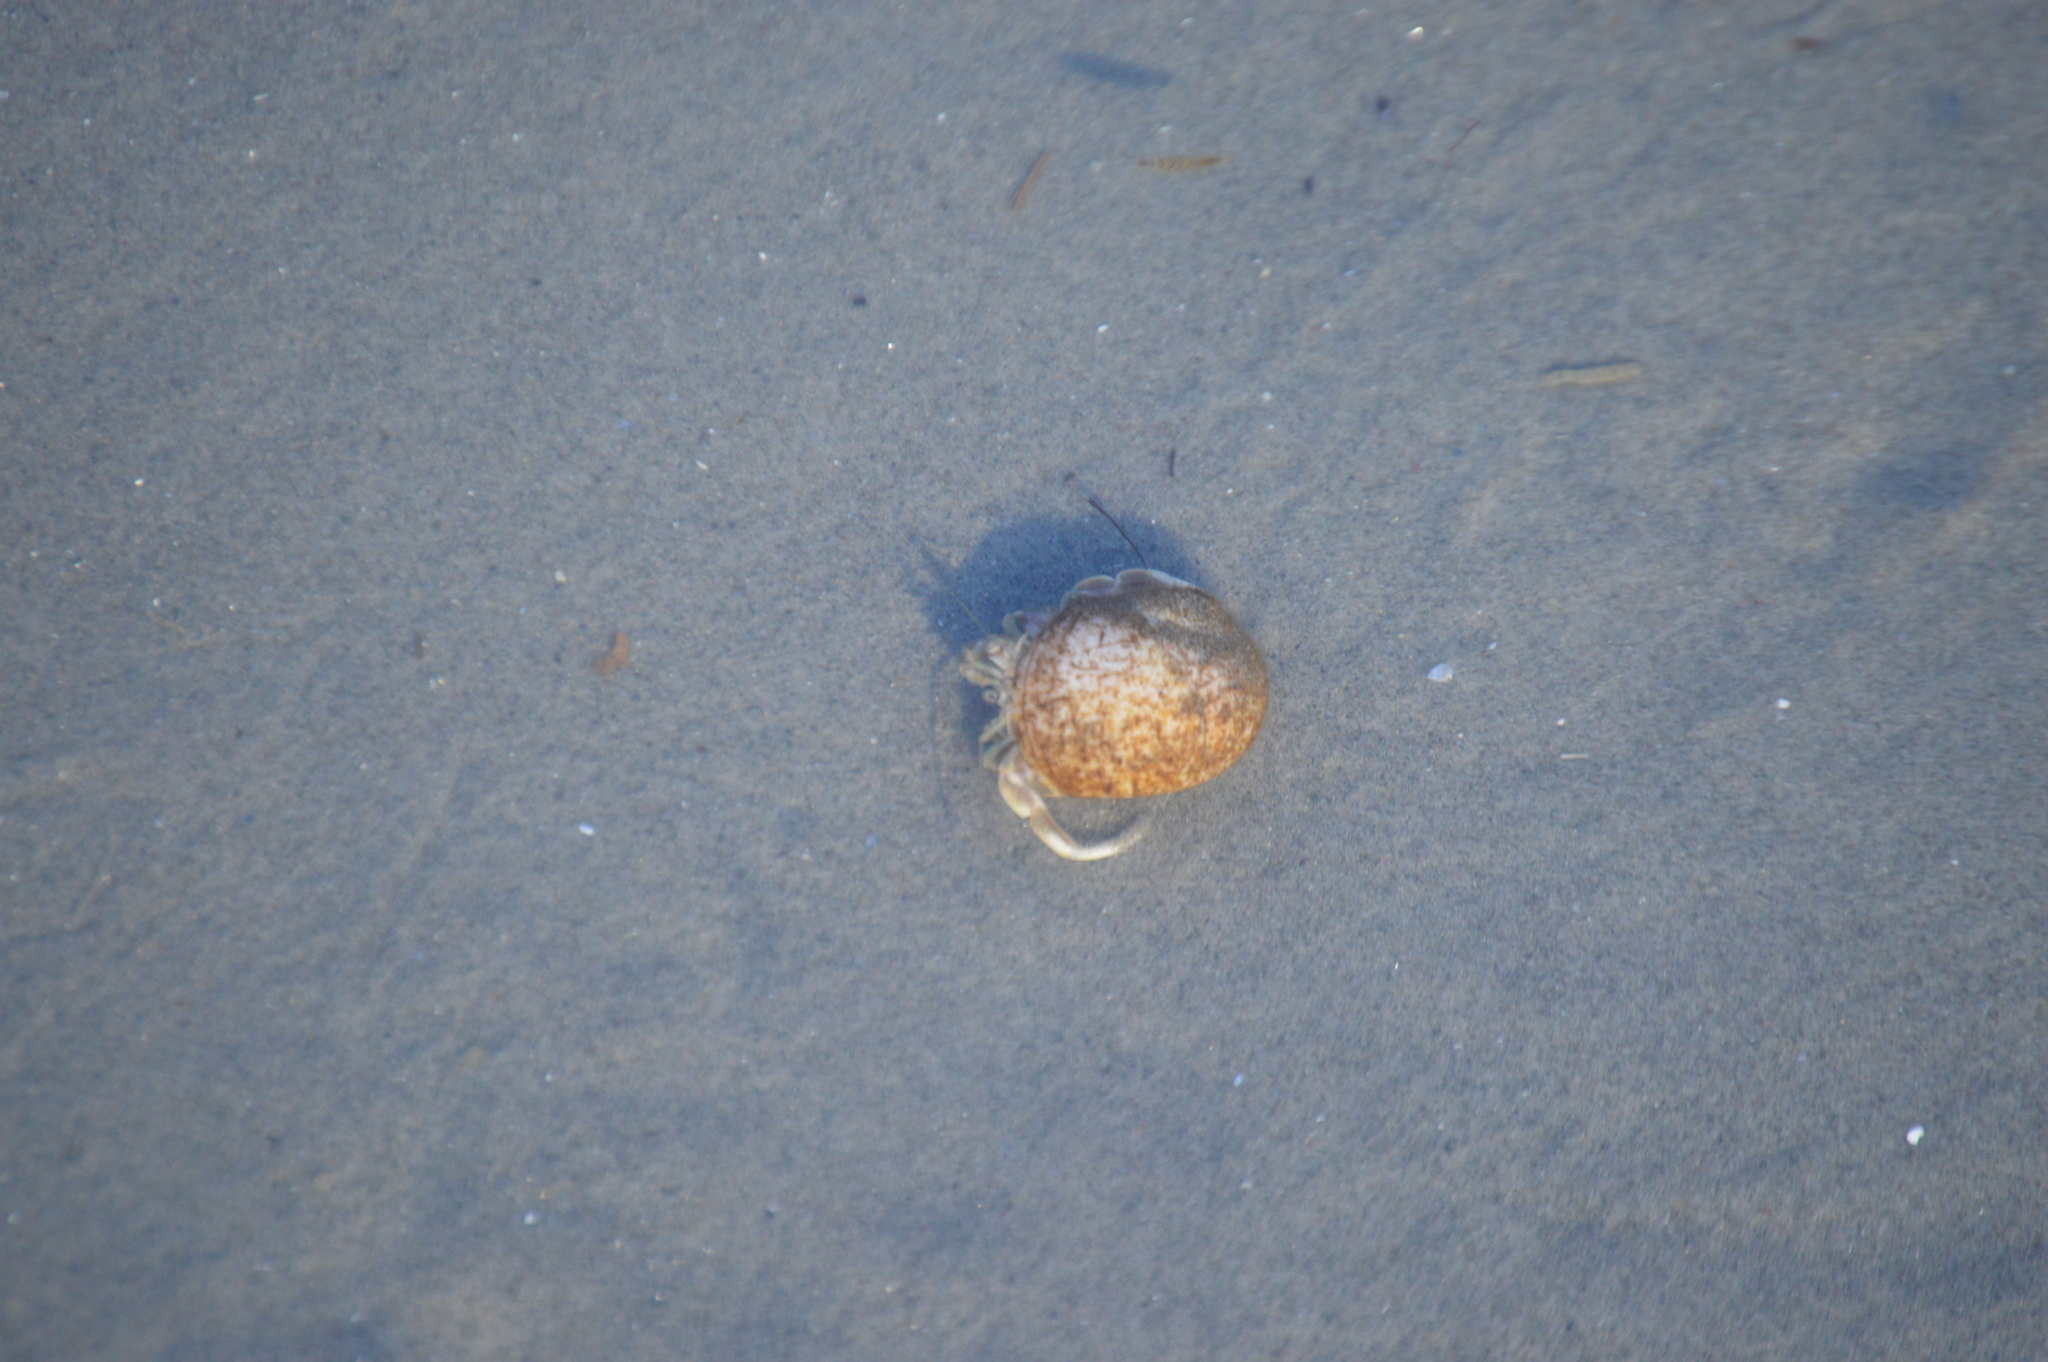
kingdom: Animalia
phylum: Arthropoda
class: Malacostraca
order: Decapoda
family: Paguridae
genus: Pagurus
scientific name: Pagurus longicarpus
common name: Long-armed hermit crab
